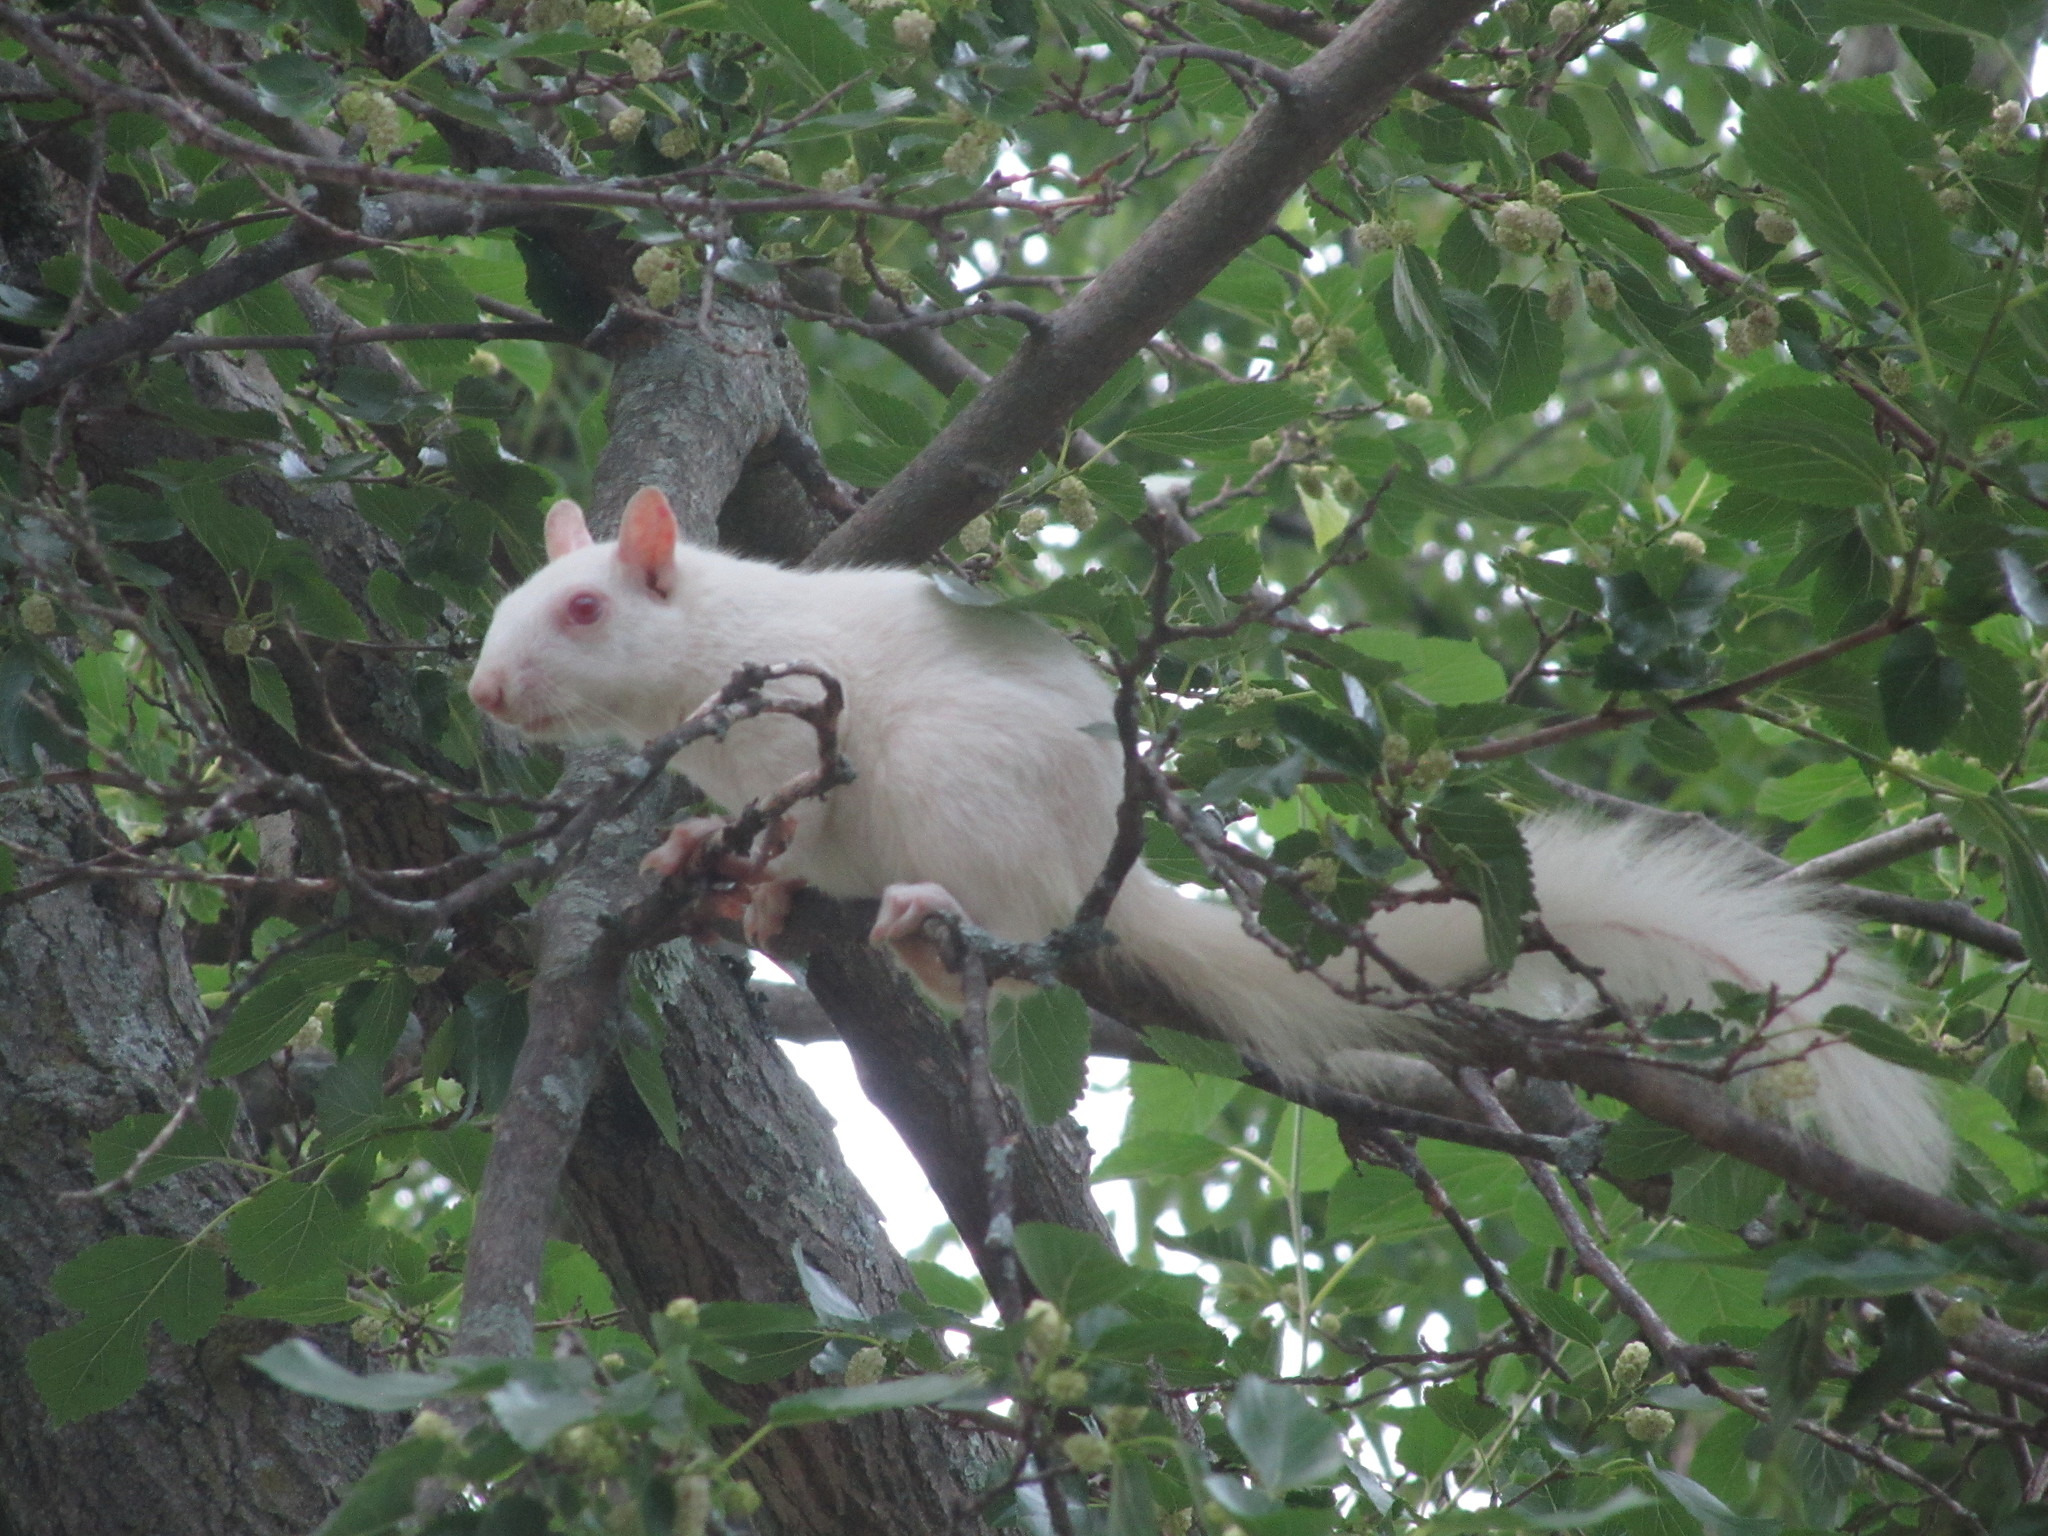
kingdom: Animalia
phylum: Chordata
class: Mammalia
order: Rodentia
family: Sciuridae
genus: Sciurus
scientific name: Sciurus carolinensis
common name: Eastern gray squirrel
